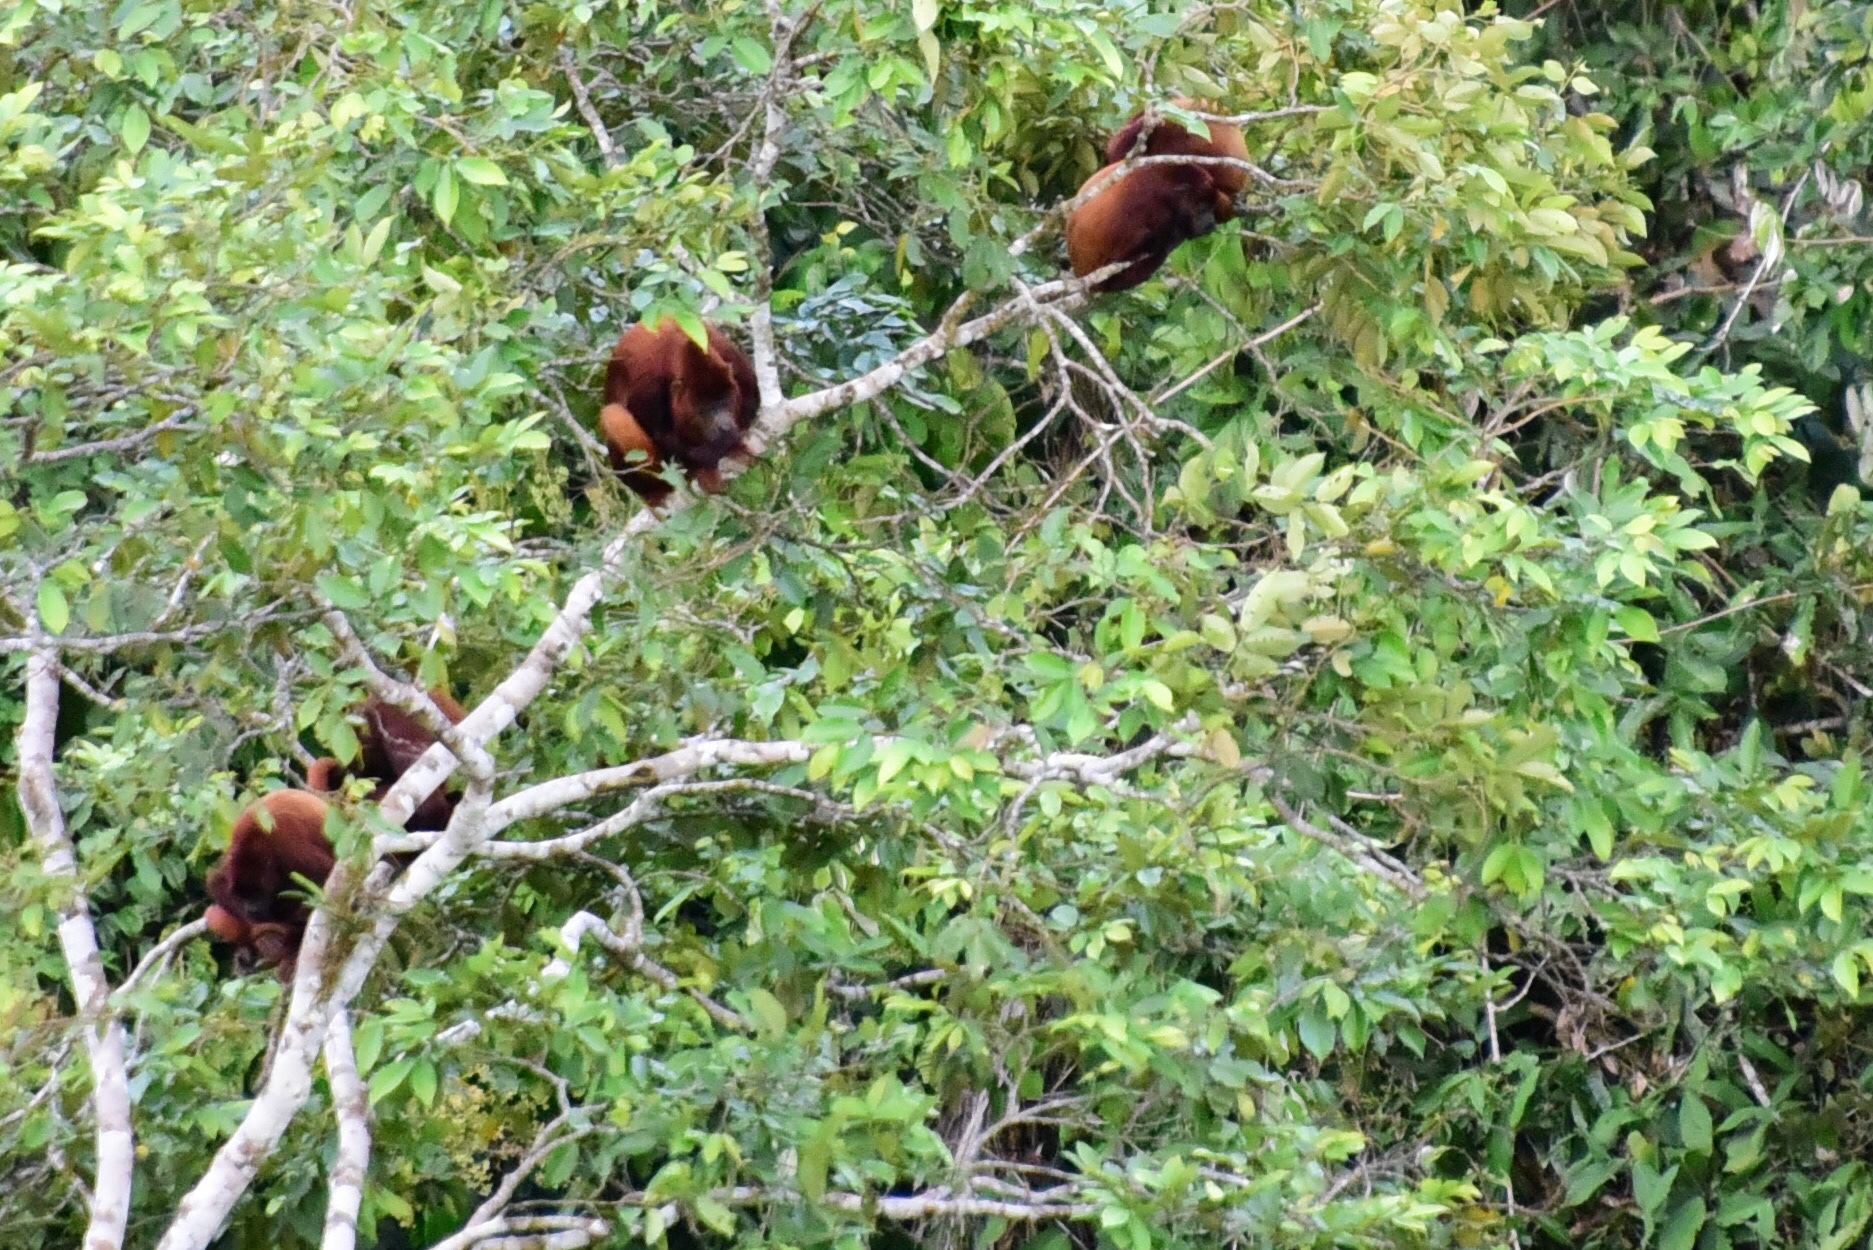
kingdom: Animalia
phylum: Chordata
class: Mammalia
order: Primates
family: Atelidae
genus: Alouatta
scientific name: Alouatta seniculus
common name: Venezuelan red howler
